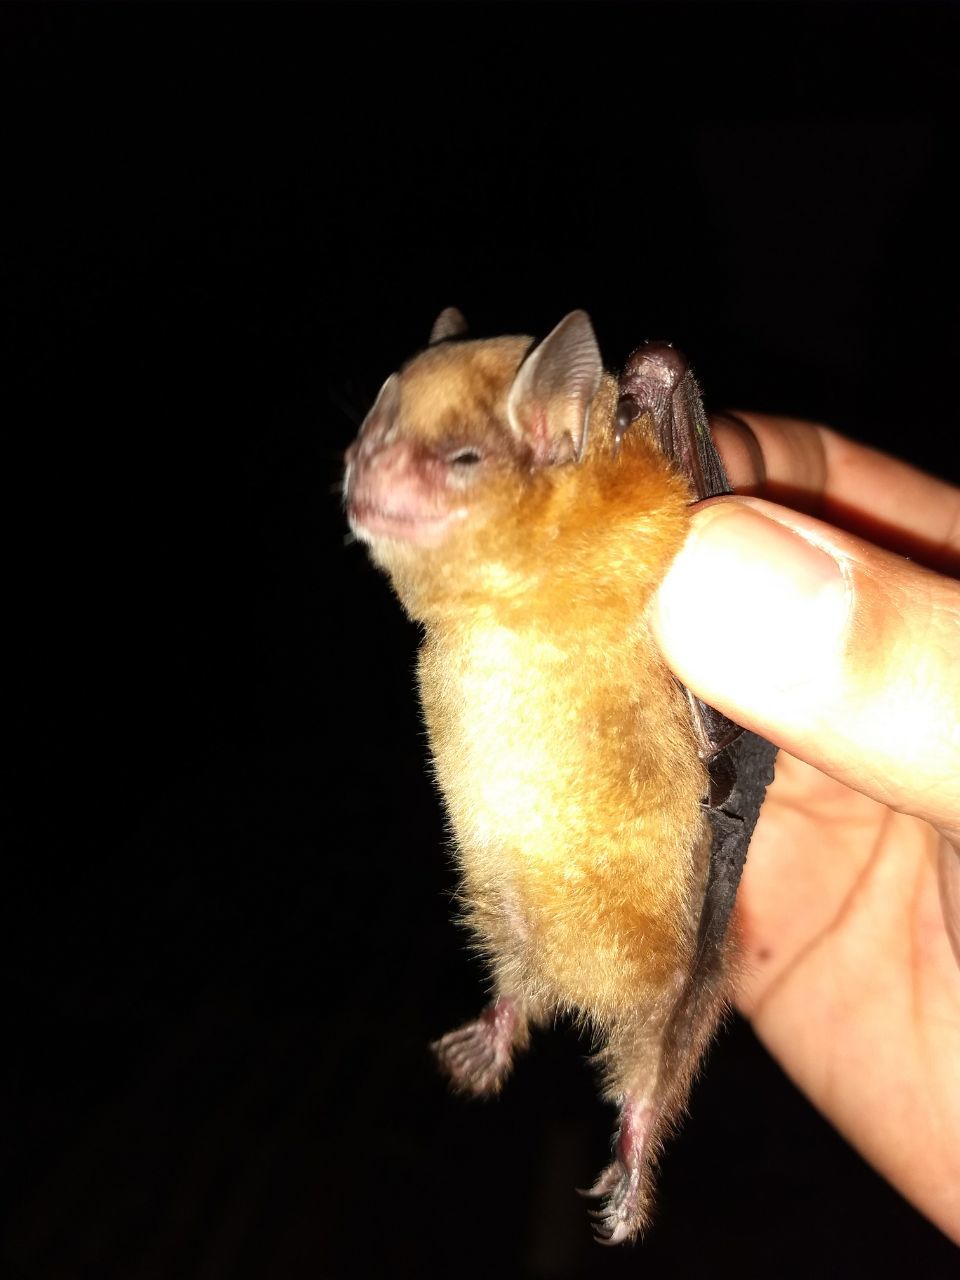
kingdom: Animalia
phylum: Chordata
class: Mammalia
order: Chiroptera
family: Phyllostomidae
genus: Sturnira
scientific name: Sturnira parvidens
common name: Northern yellow-shouldered bat
